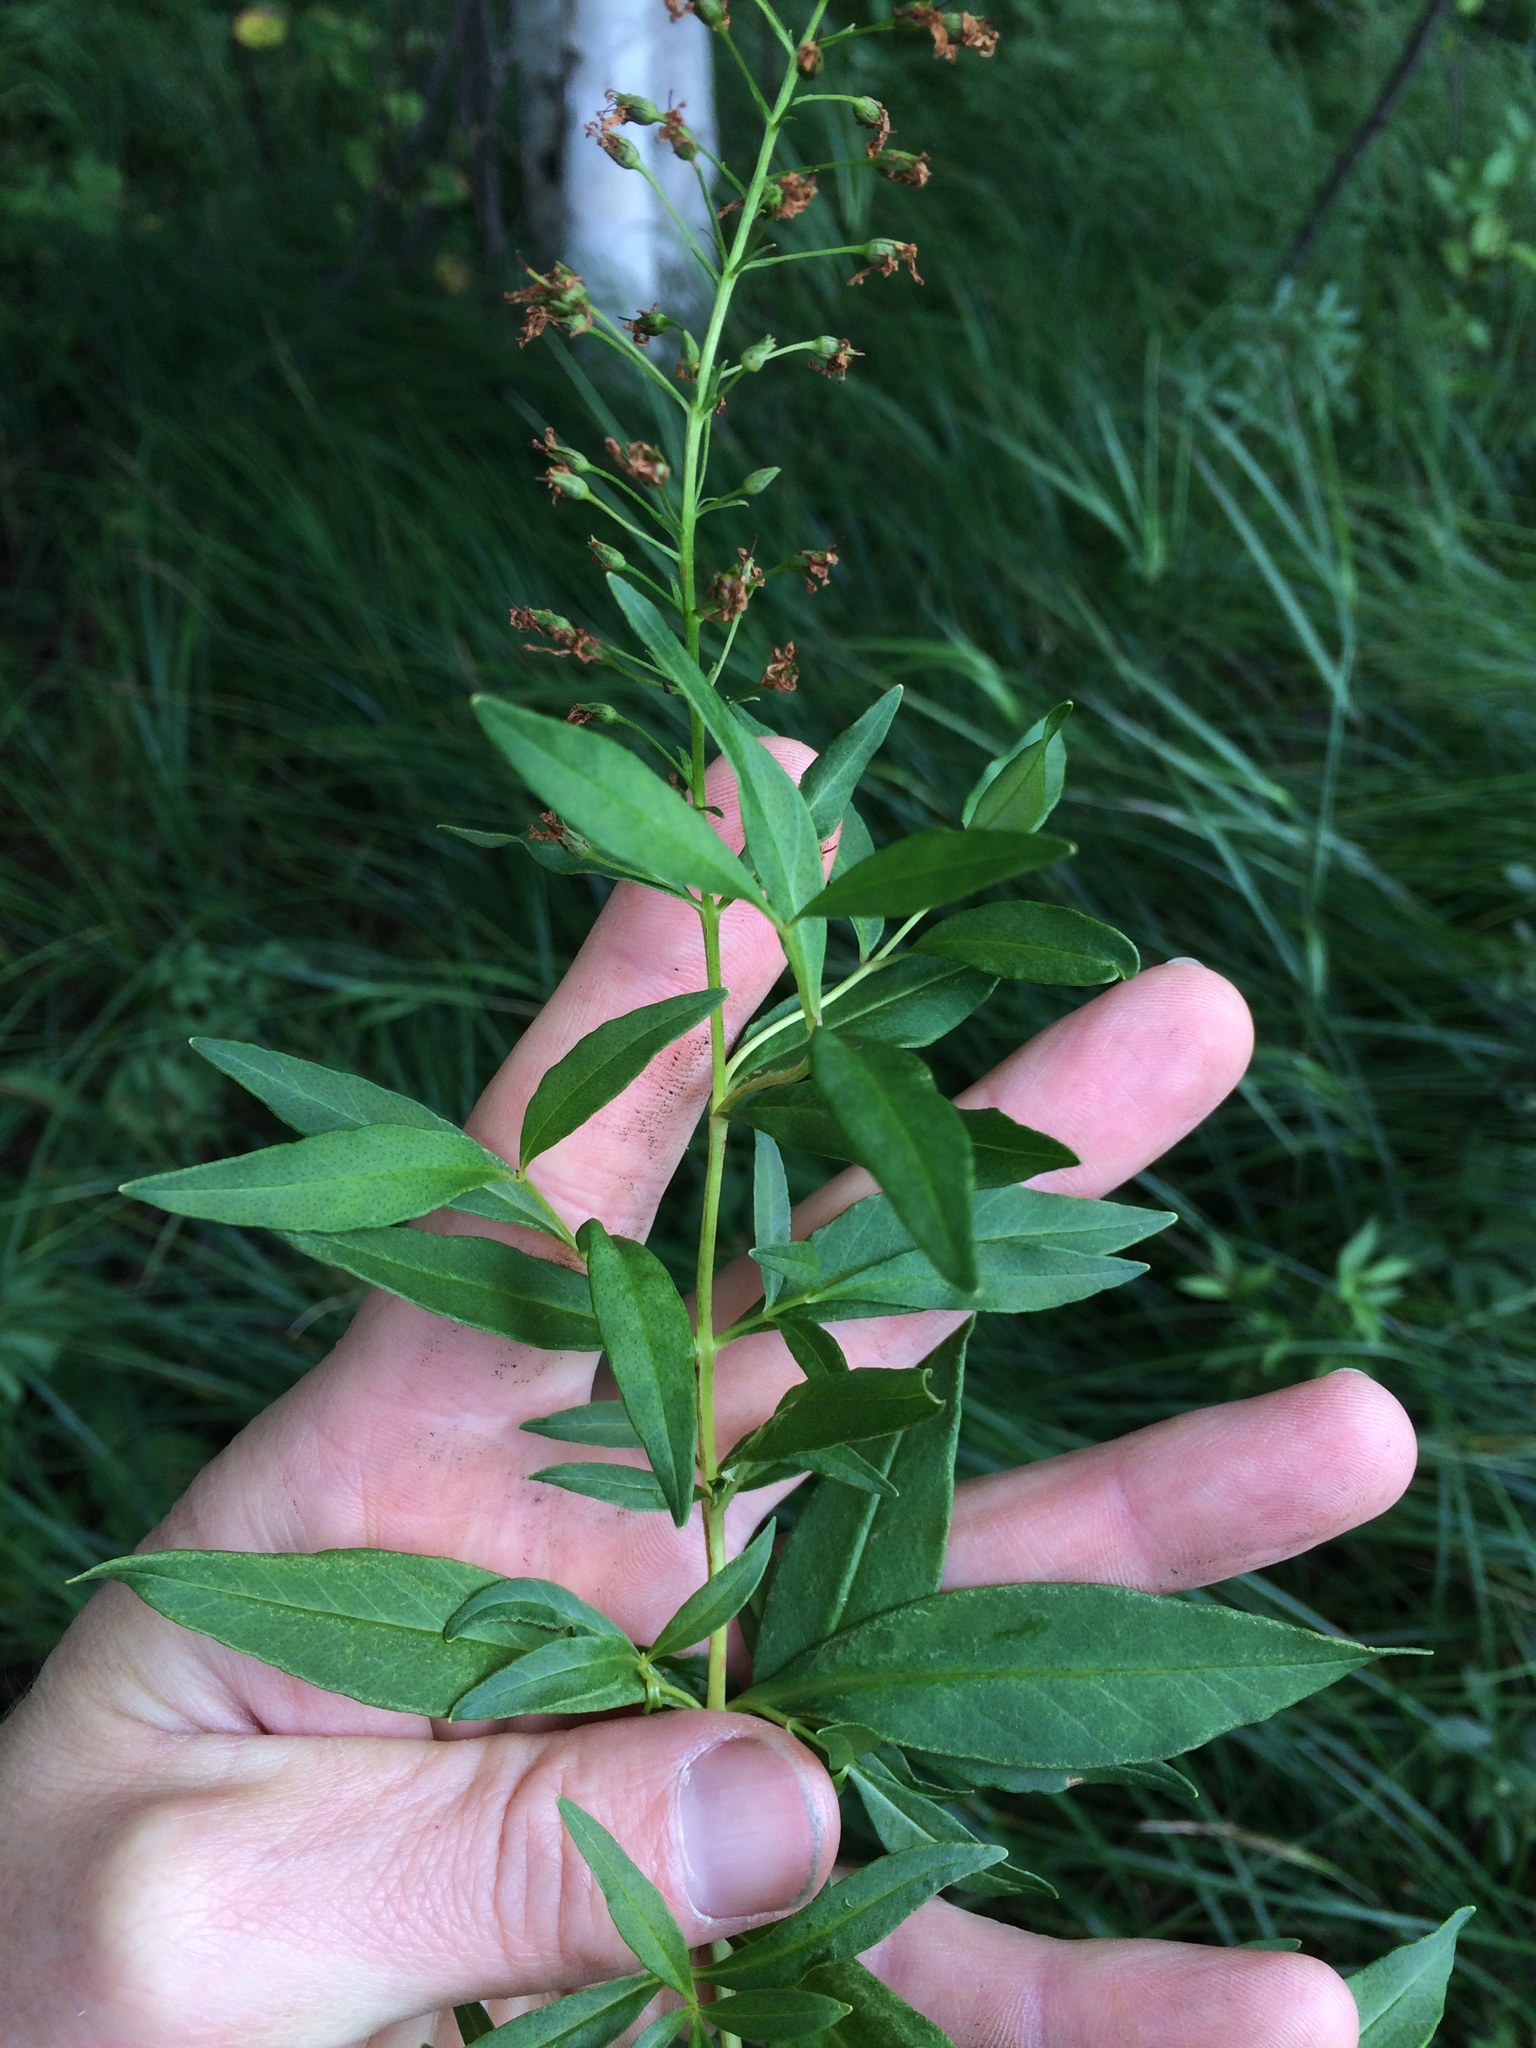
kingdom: Plantae
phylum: Tracheophyta
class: Magnoliopsida
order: Ericales
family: Primulaceae
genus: Lysimachia
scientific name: Lysimachia terrestris
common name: Lake loosestrife
